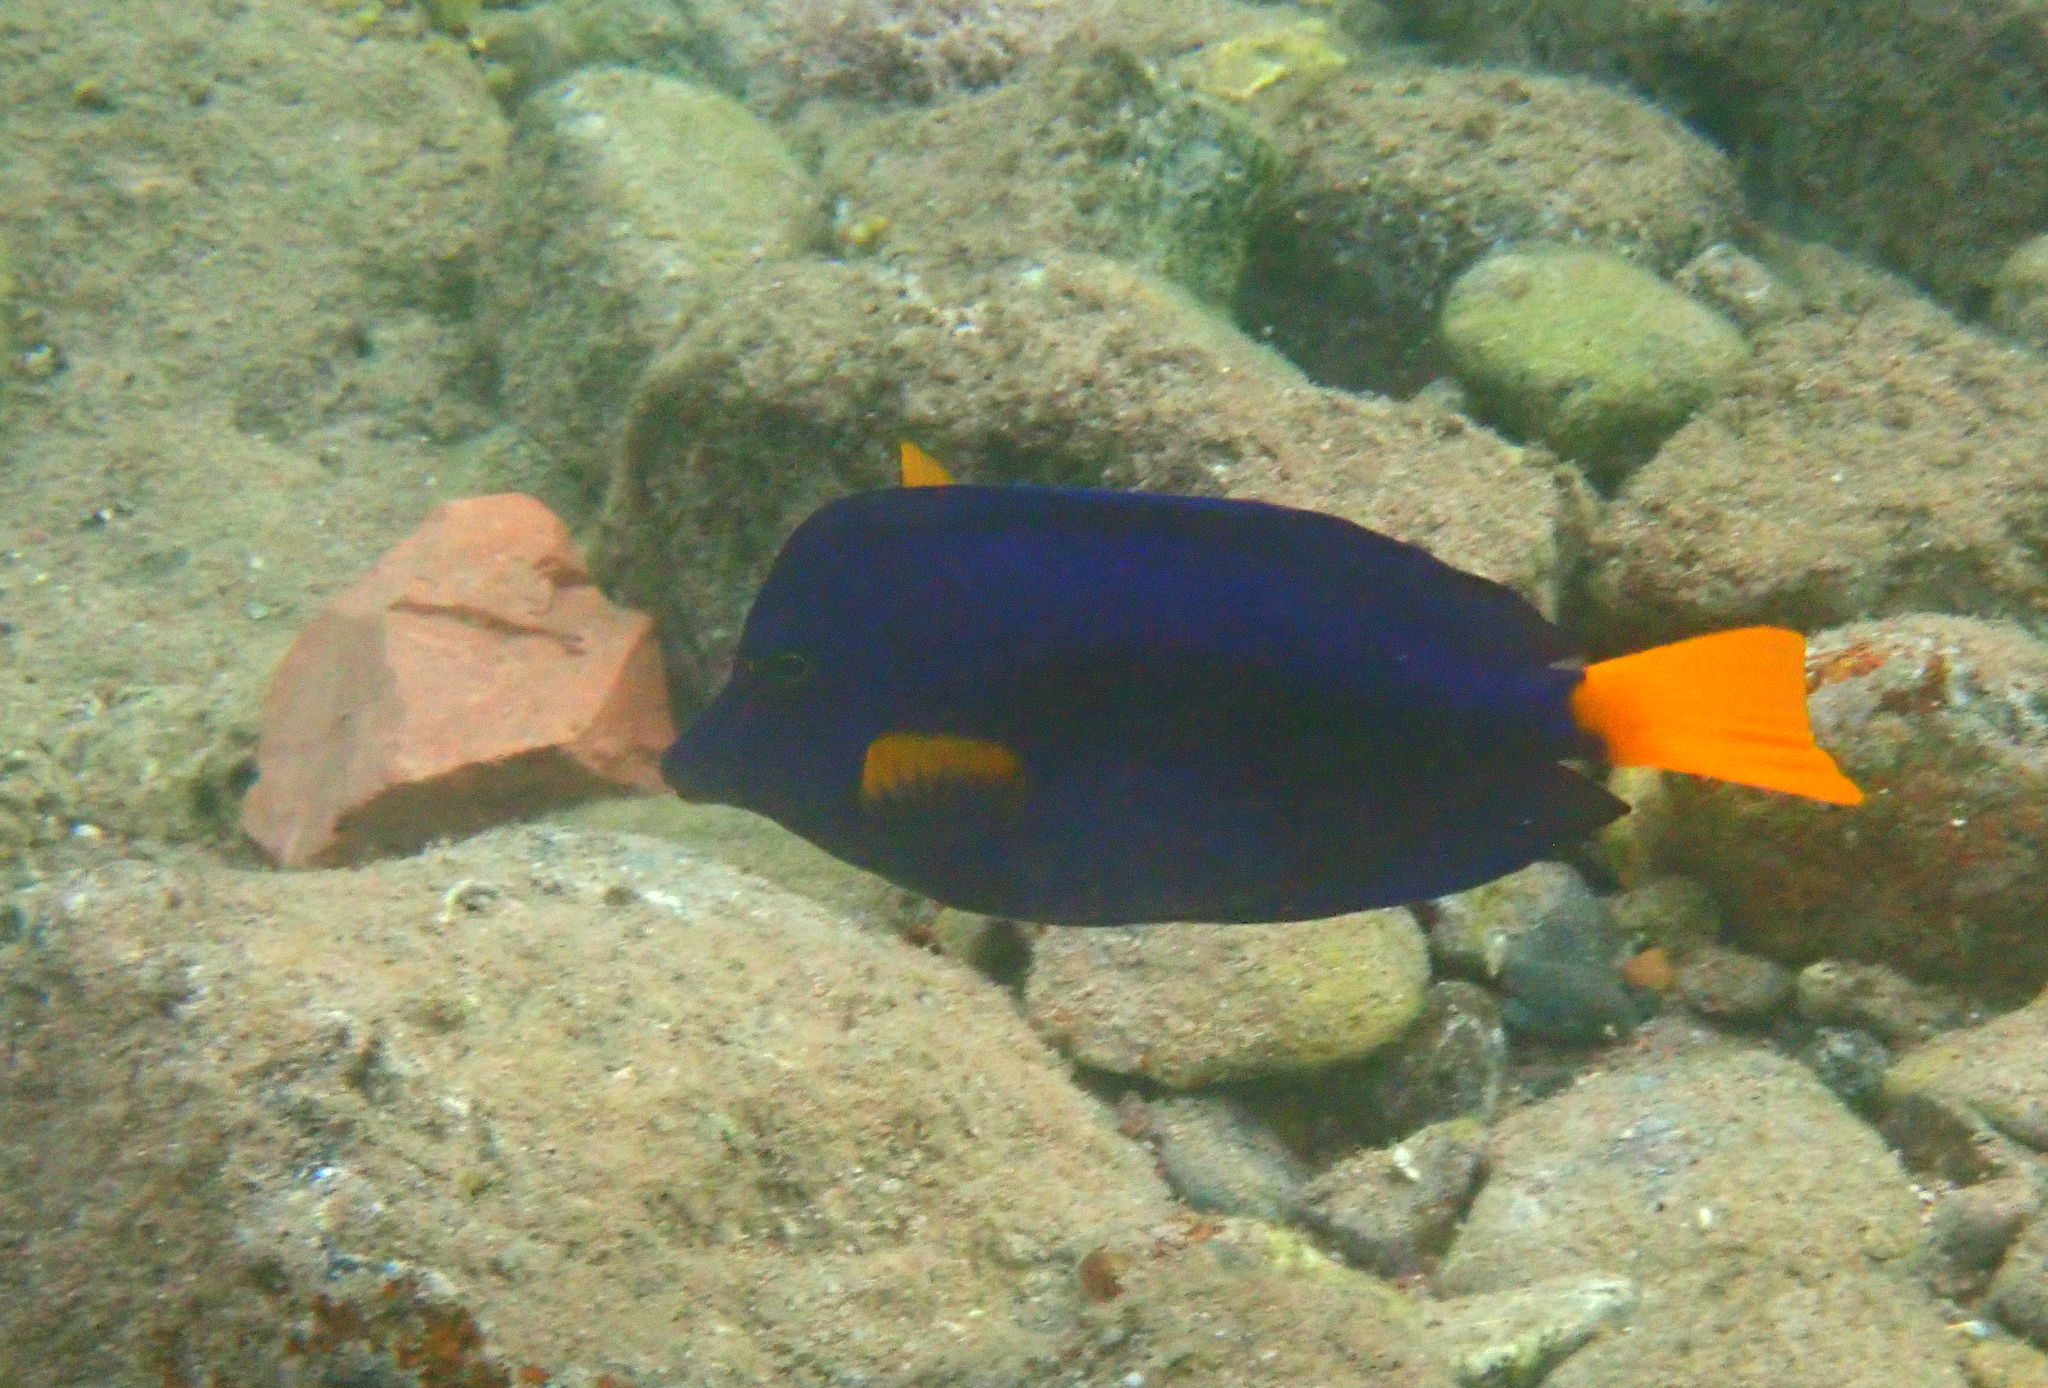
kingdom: Animalia
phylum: Chordata
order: Perciformes
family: Acanthuridae
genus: Zebrasoma
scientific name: Zebrasoma xanthurum
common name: Purple tang
